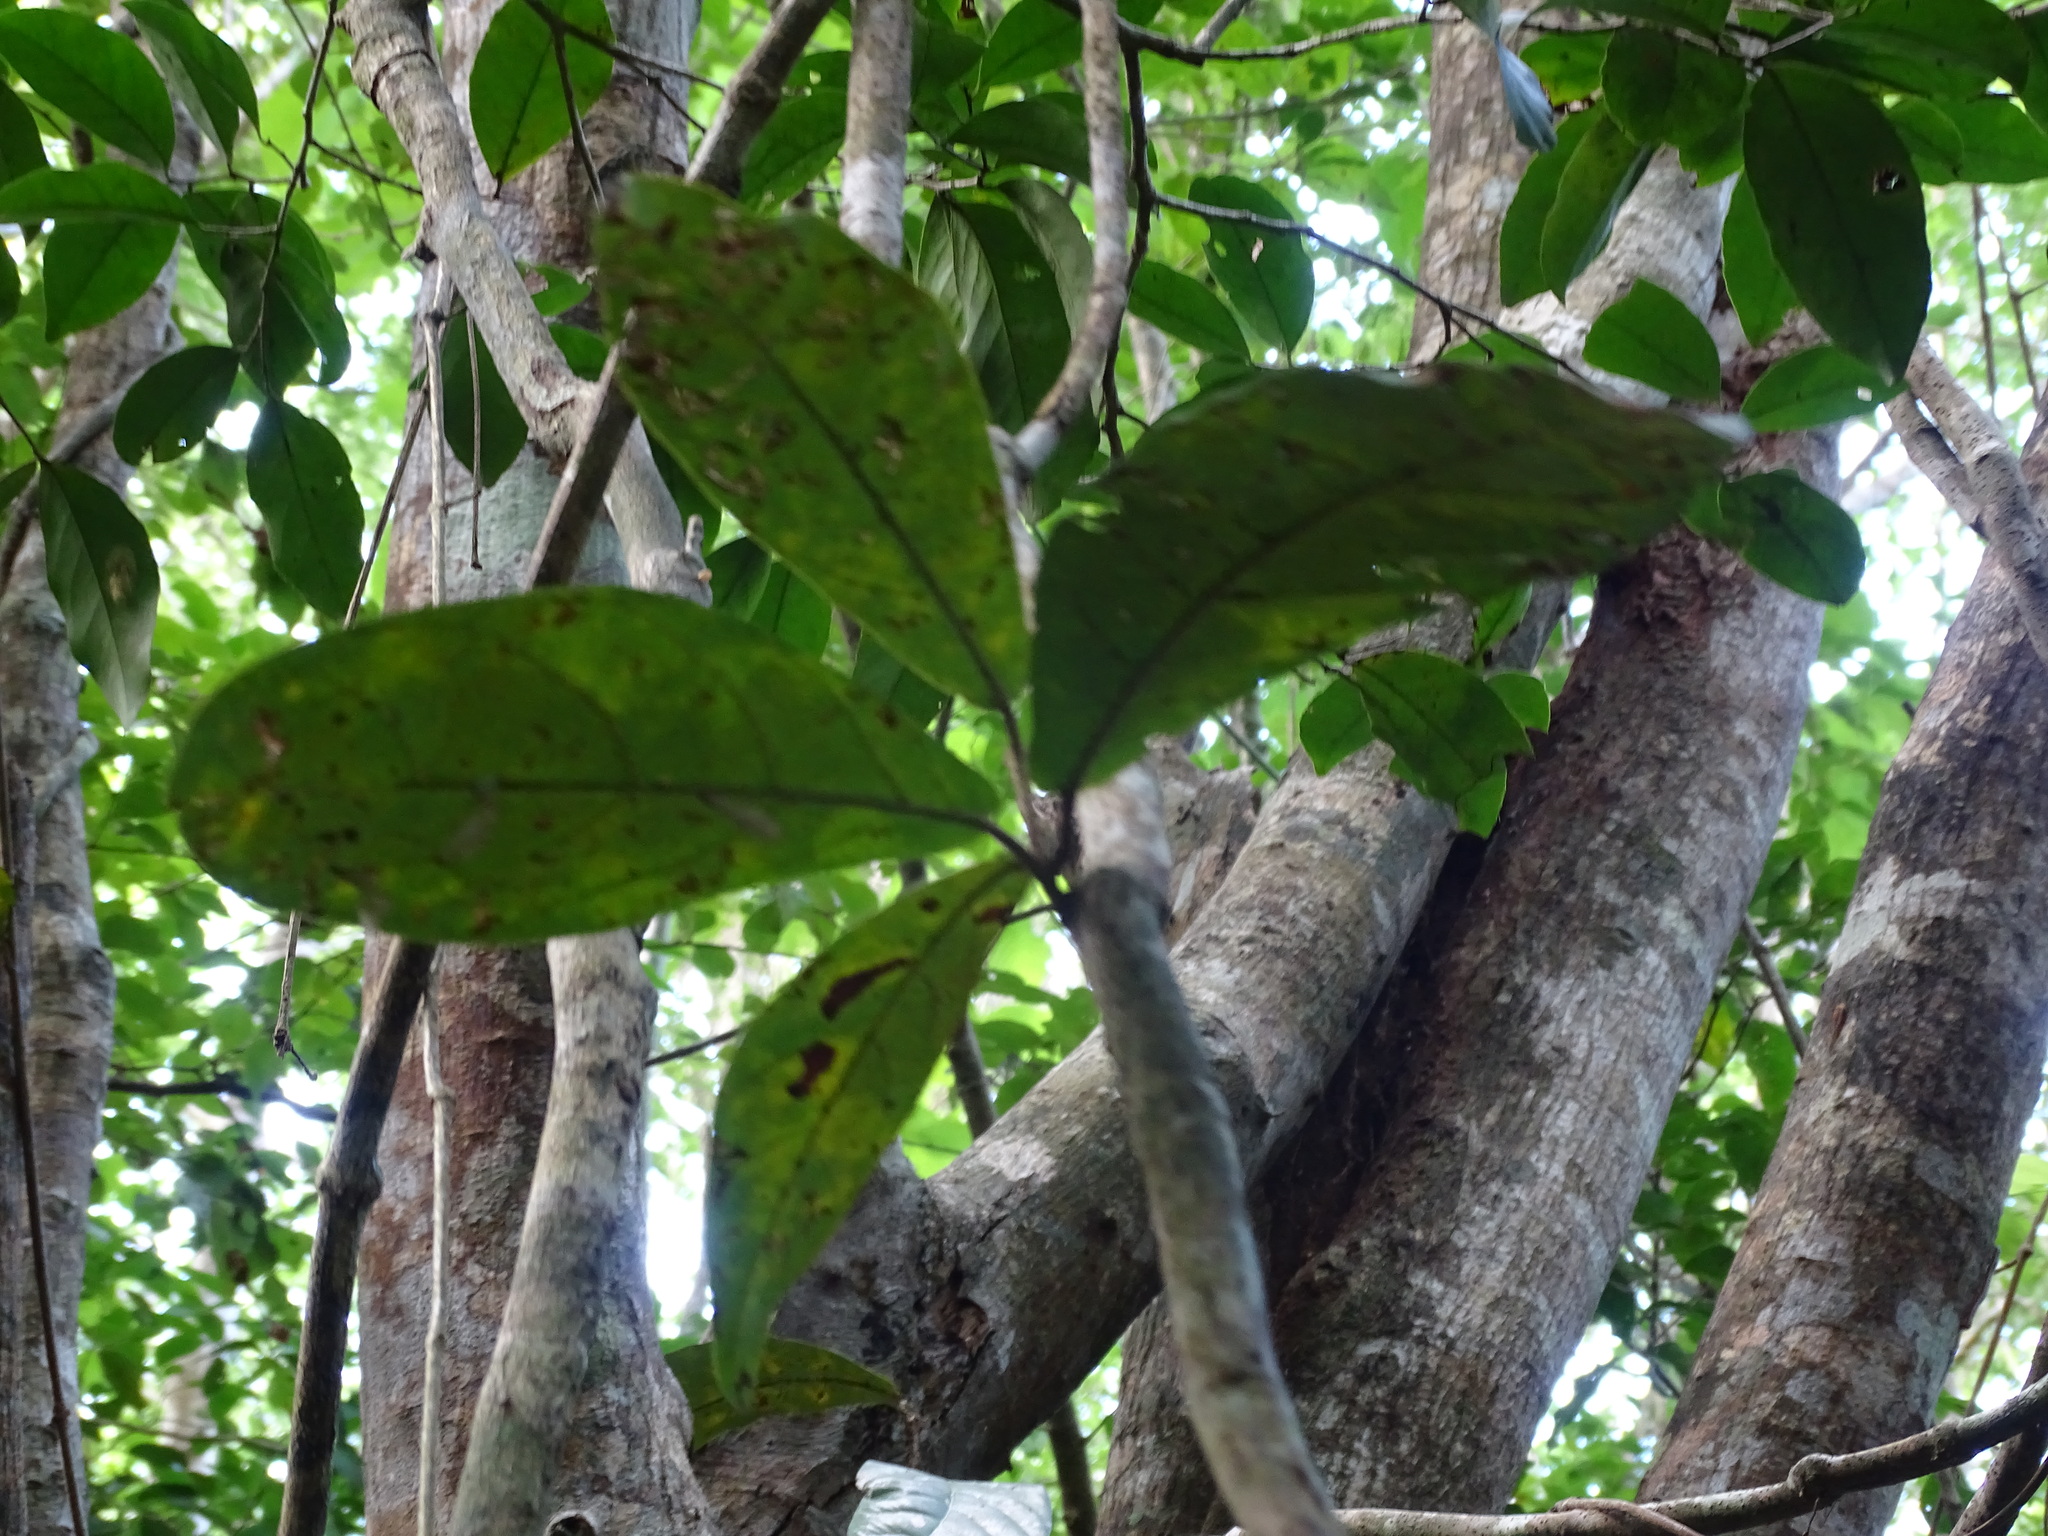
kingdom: Plantae
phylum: Tracheophyta
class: Magnoliopsida
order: Malpighiales
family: Malpighiaceae
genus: Hiraea
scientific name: Hiraea reclinata
